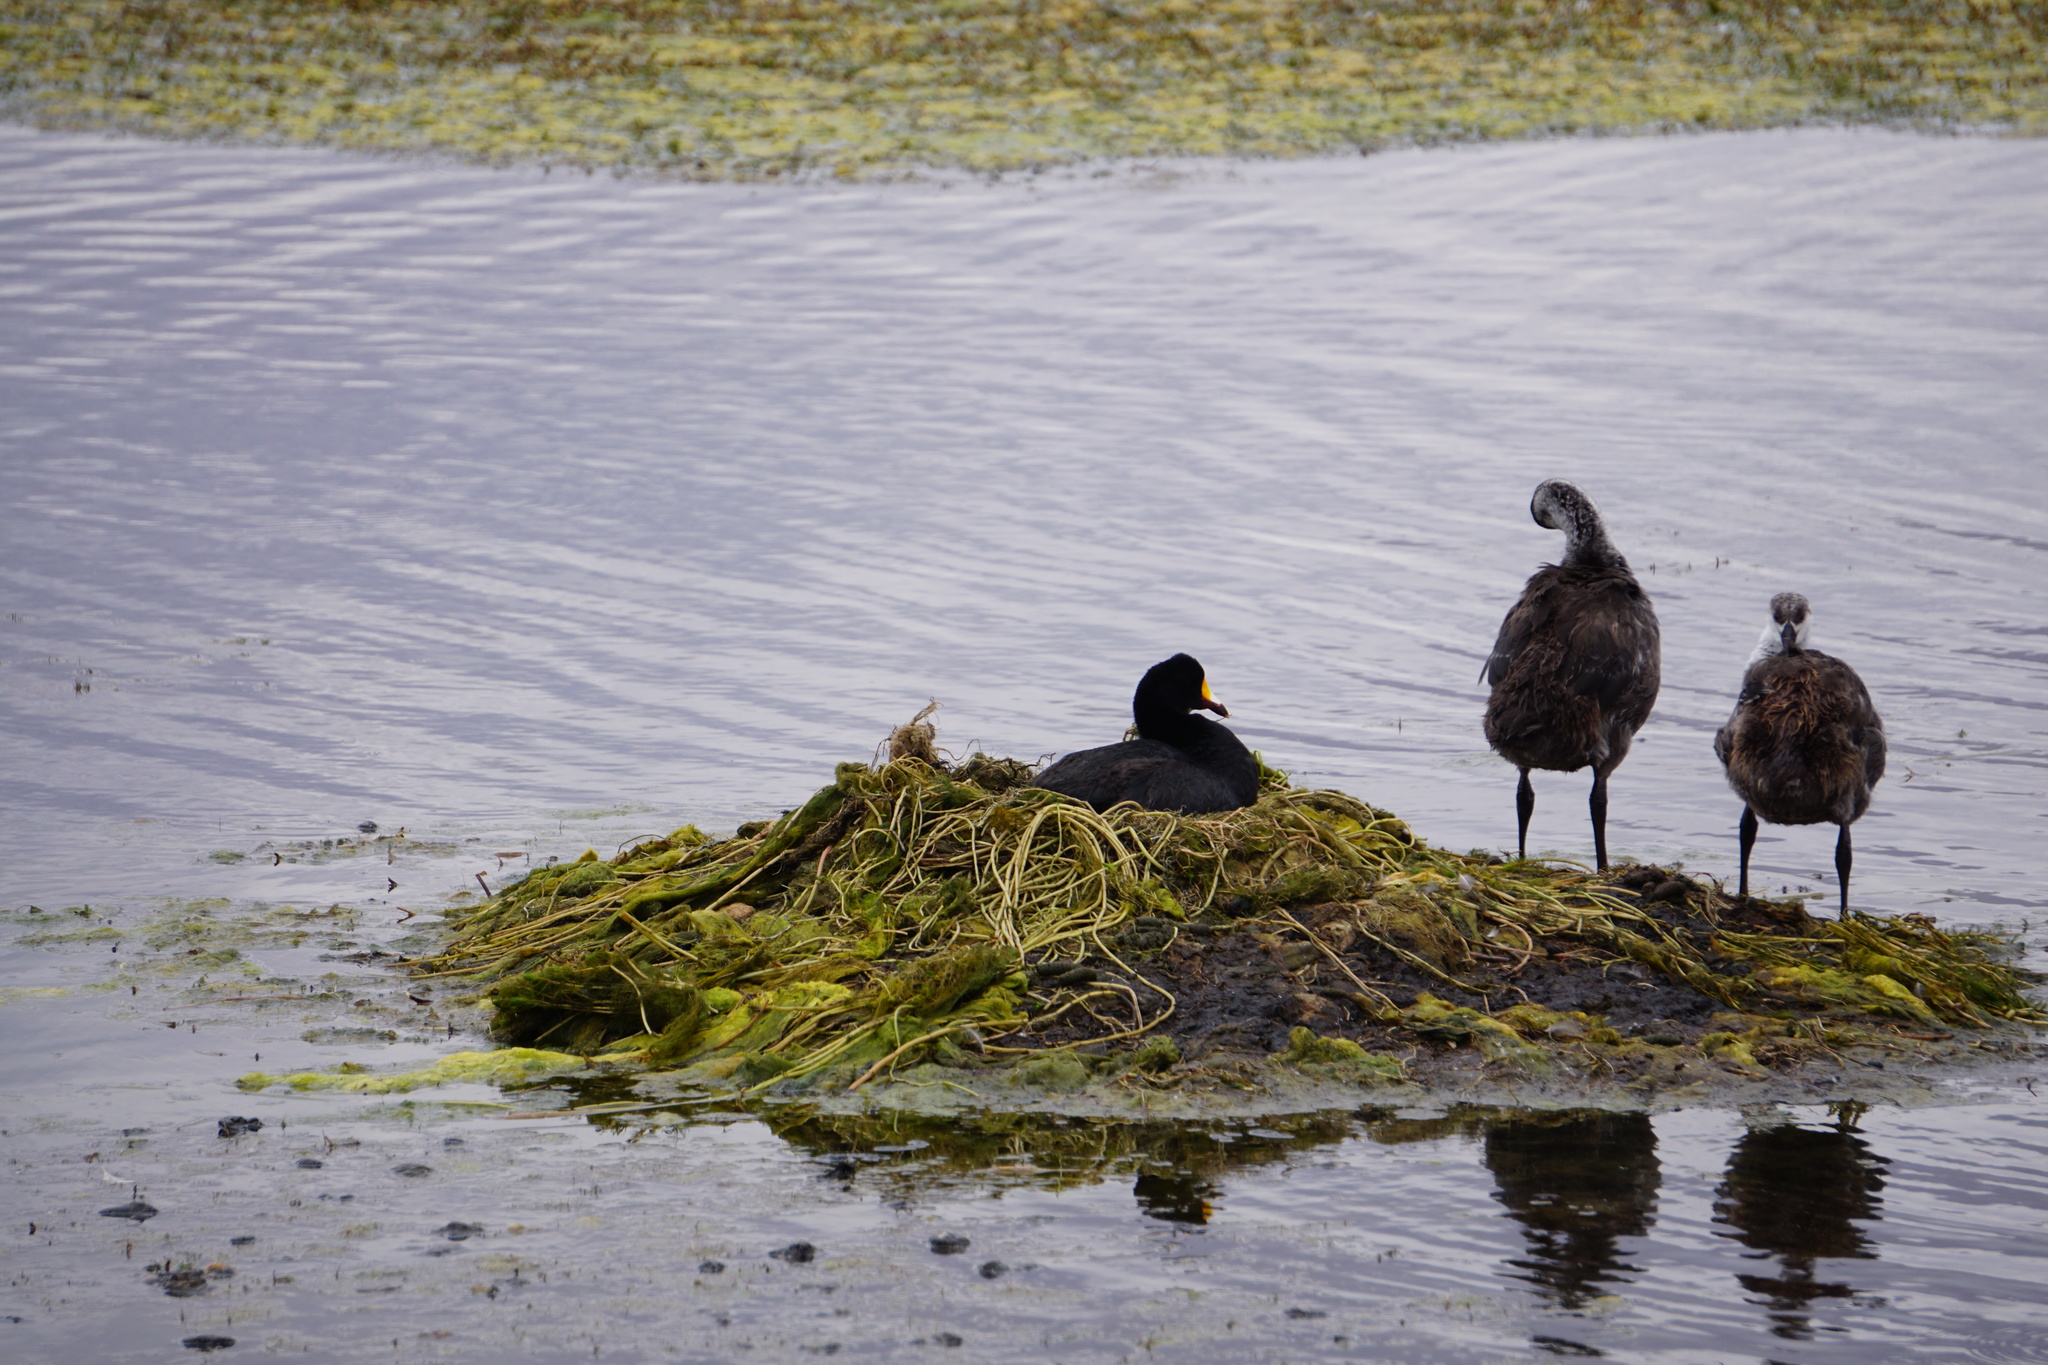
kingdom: Animalia
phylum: Chordata
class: Aves
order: Gruiformes
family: Rallidae
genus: Fulica
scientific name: Fulica gigantea
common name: Giant coot
